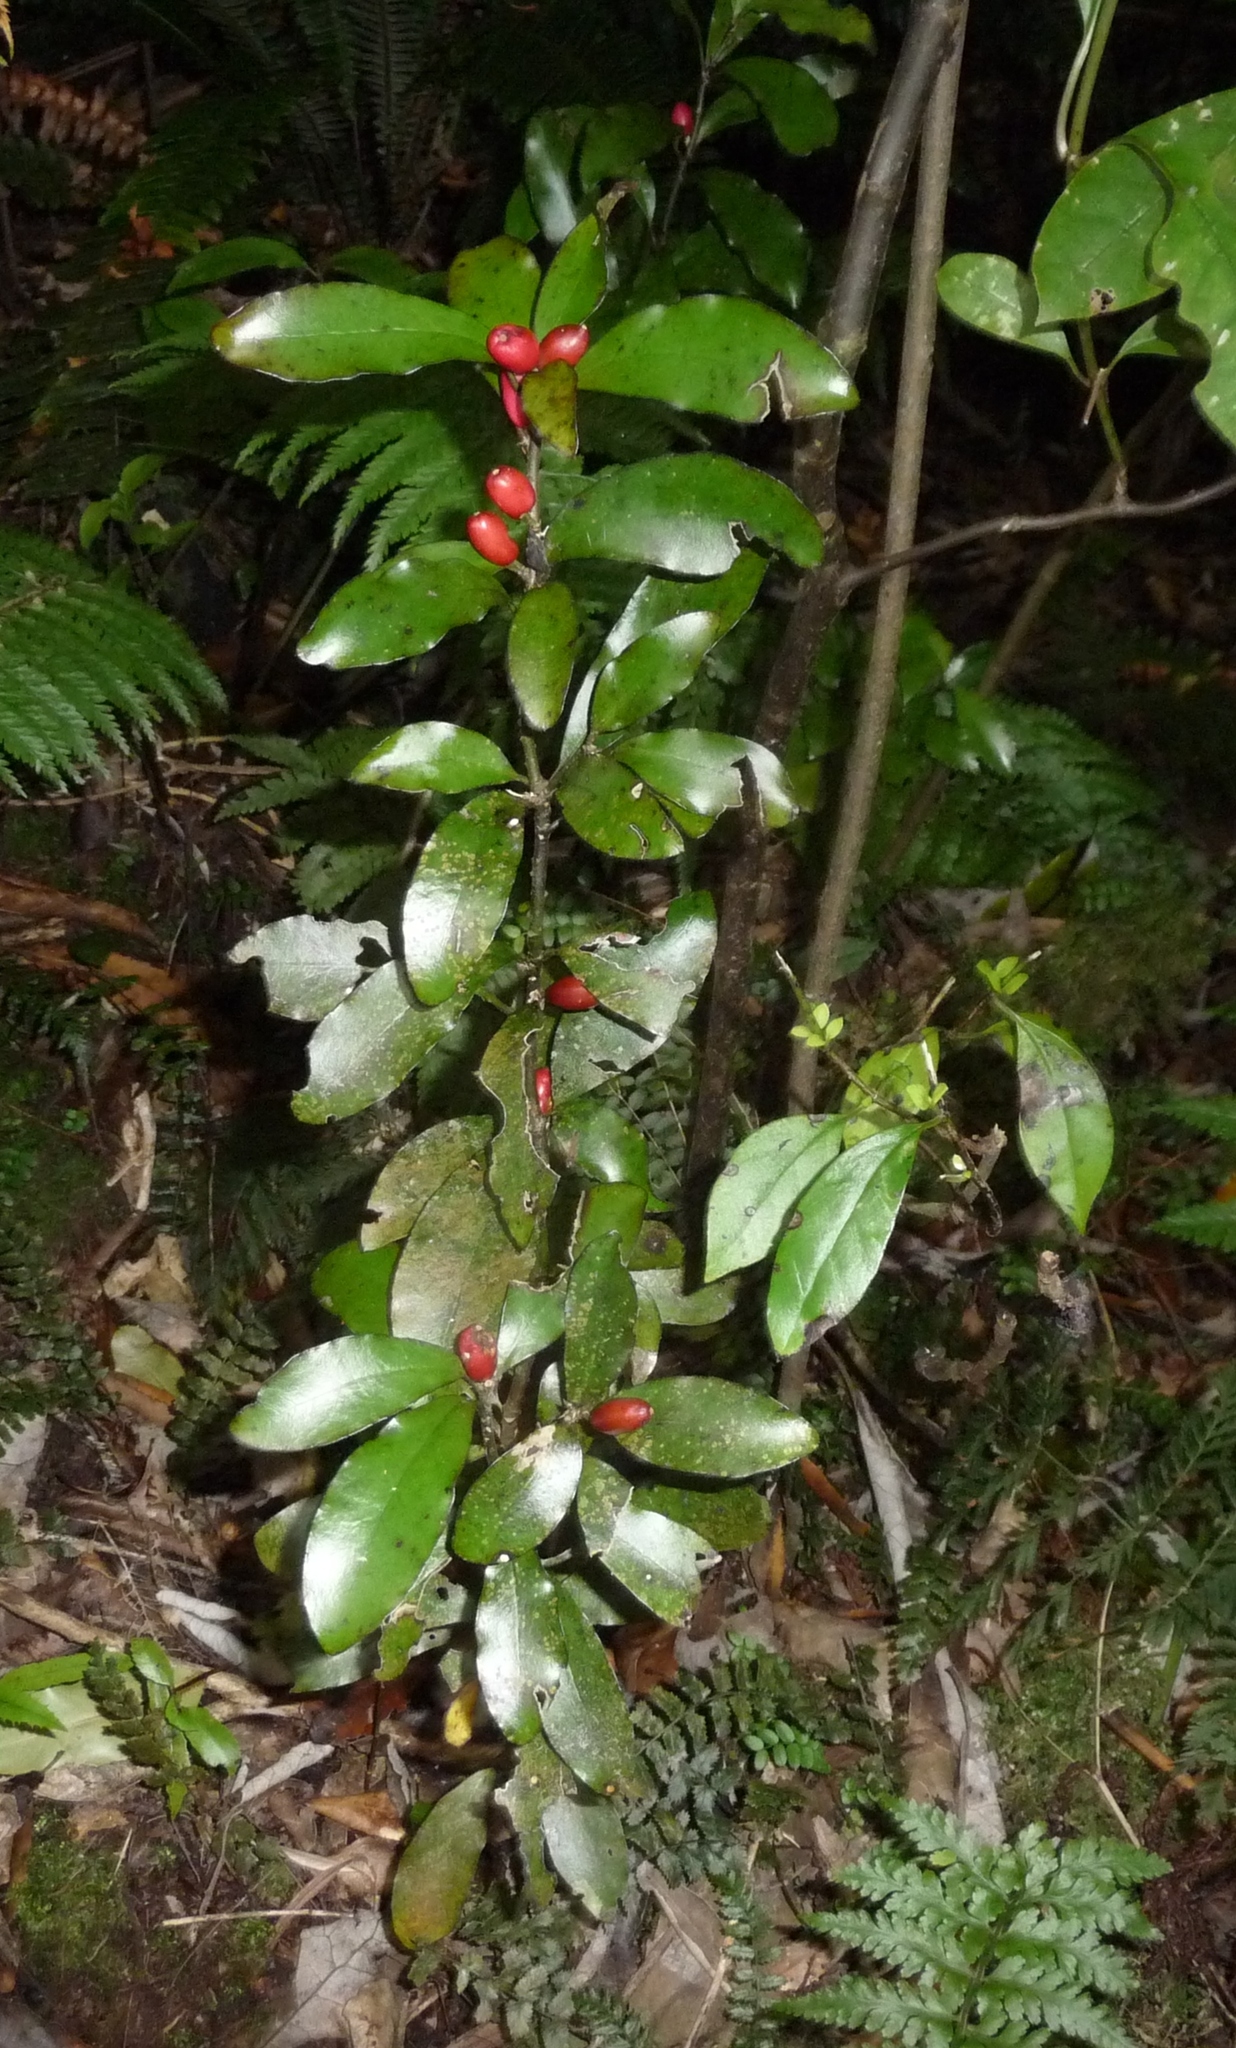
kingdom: Plantae
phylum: Tracheophyta
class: Magnoliopsida
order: Asterales
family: Alseuosmiaceae
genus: Alseuosmia
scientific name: Alseuosmia pusilla
